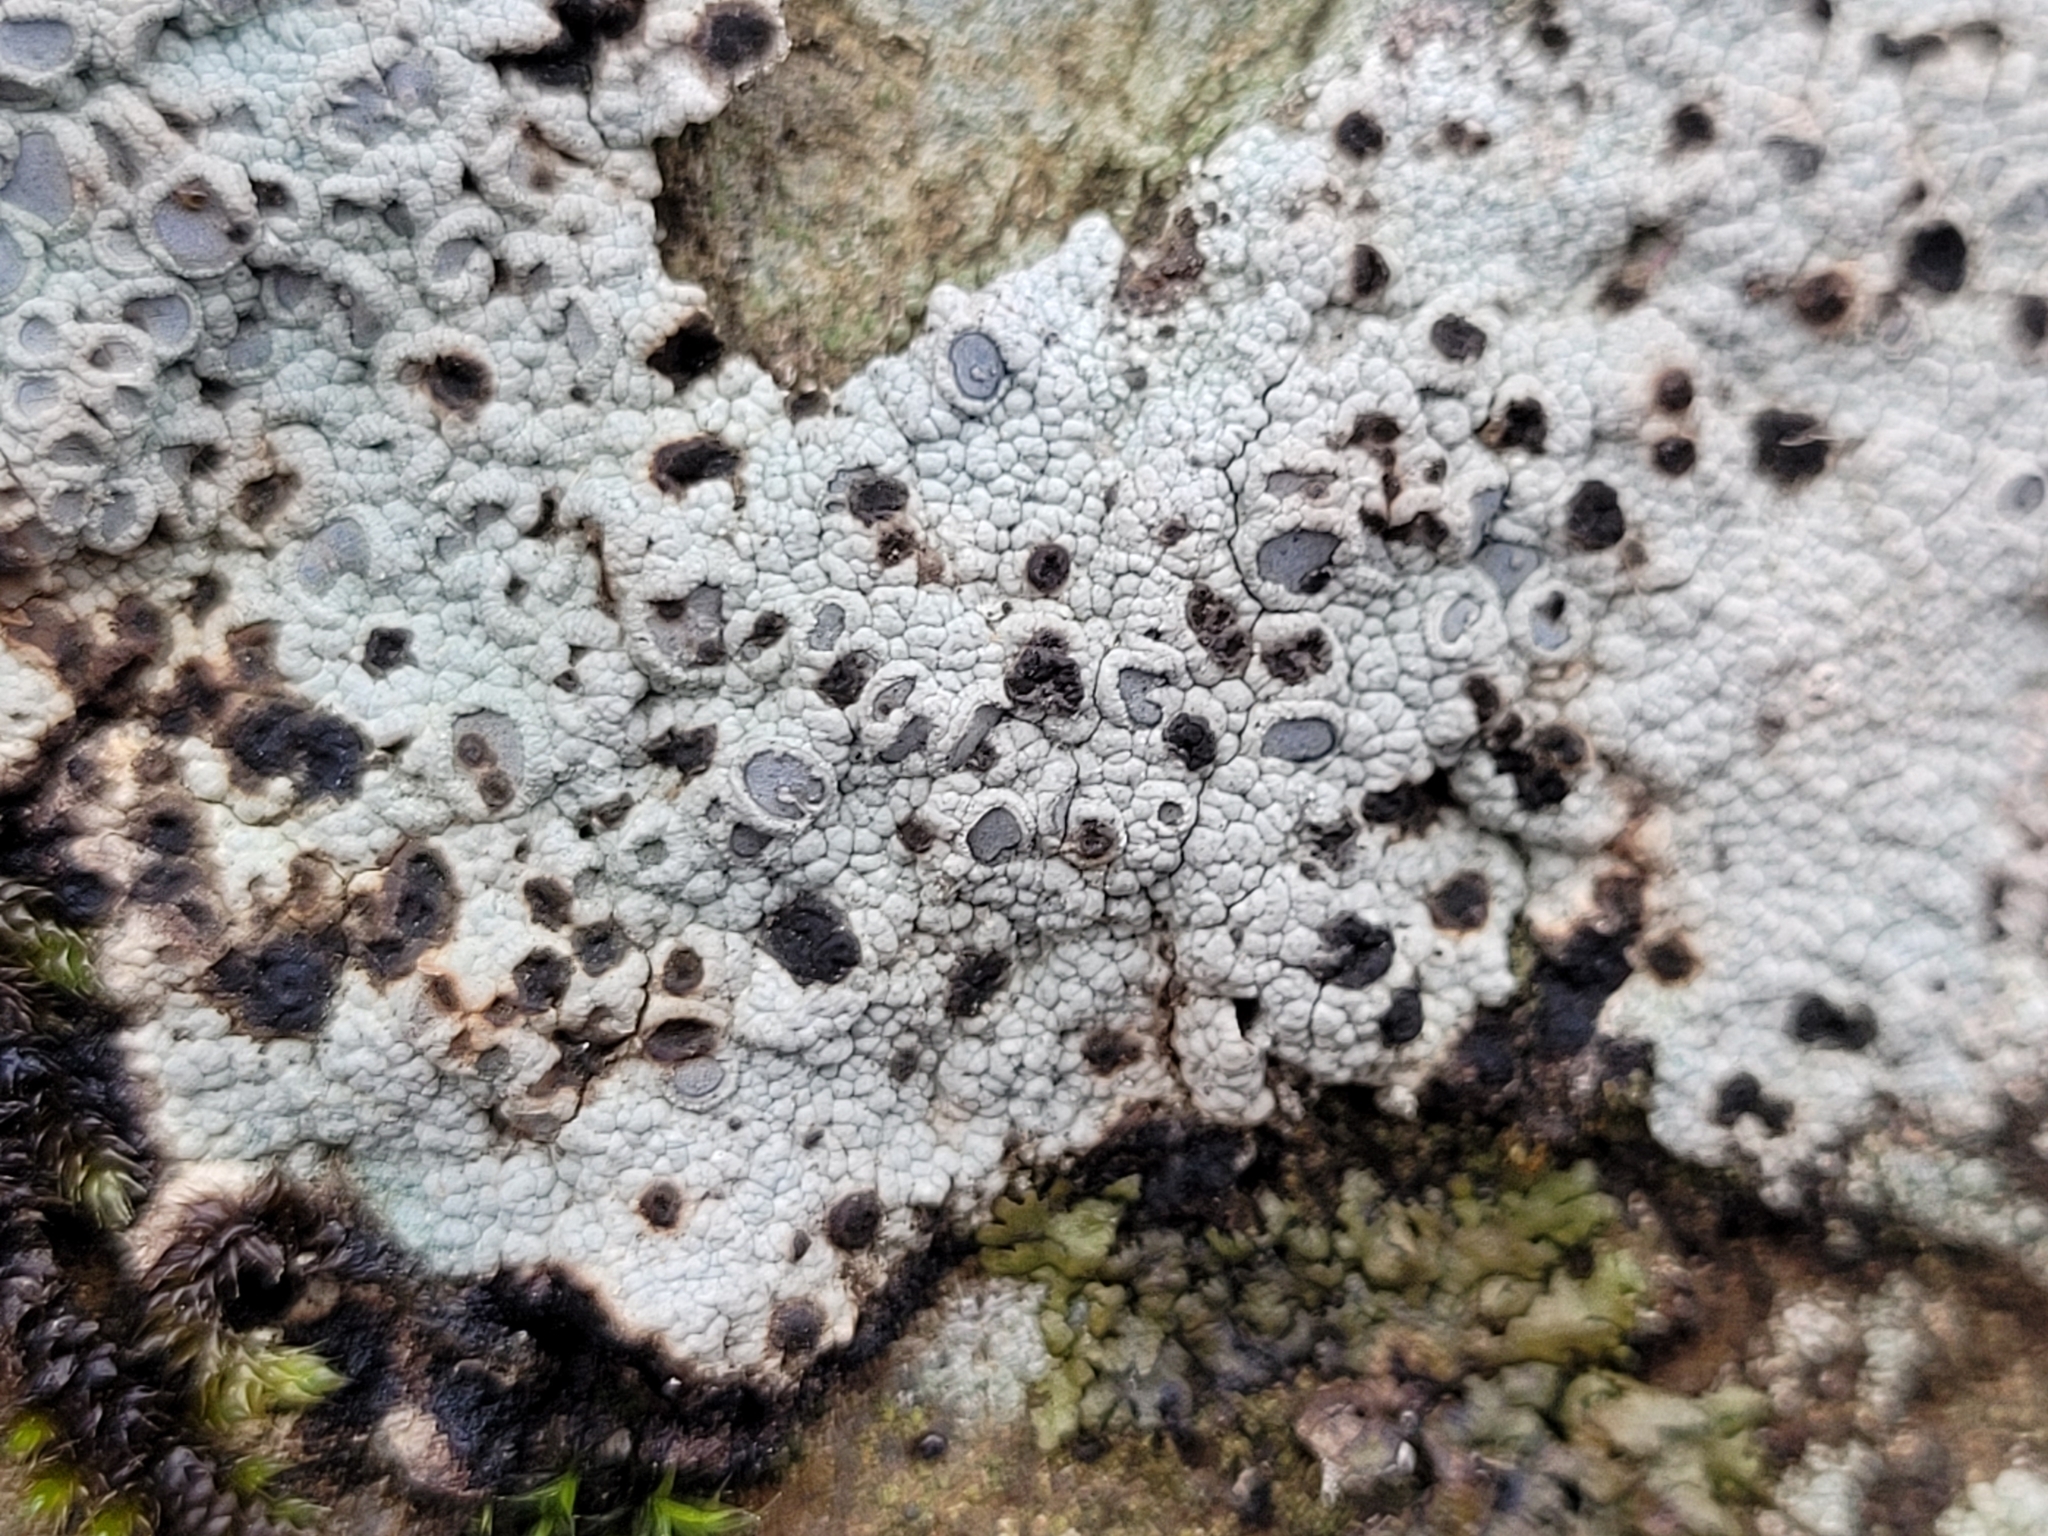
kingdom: Fungi
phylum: Ascomycota
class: Lecanoromycetes
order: Ostropales
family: Graphidaceae
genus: Diploschistes
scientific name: Diploschistes scruposus
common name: Crater lichen
